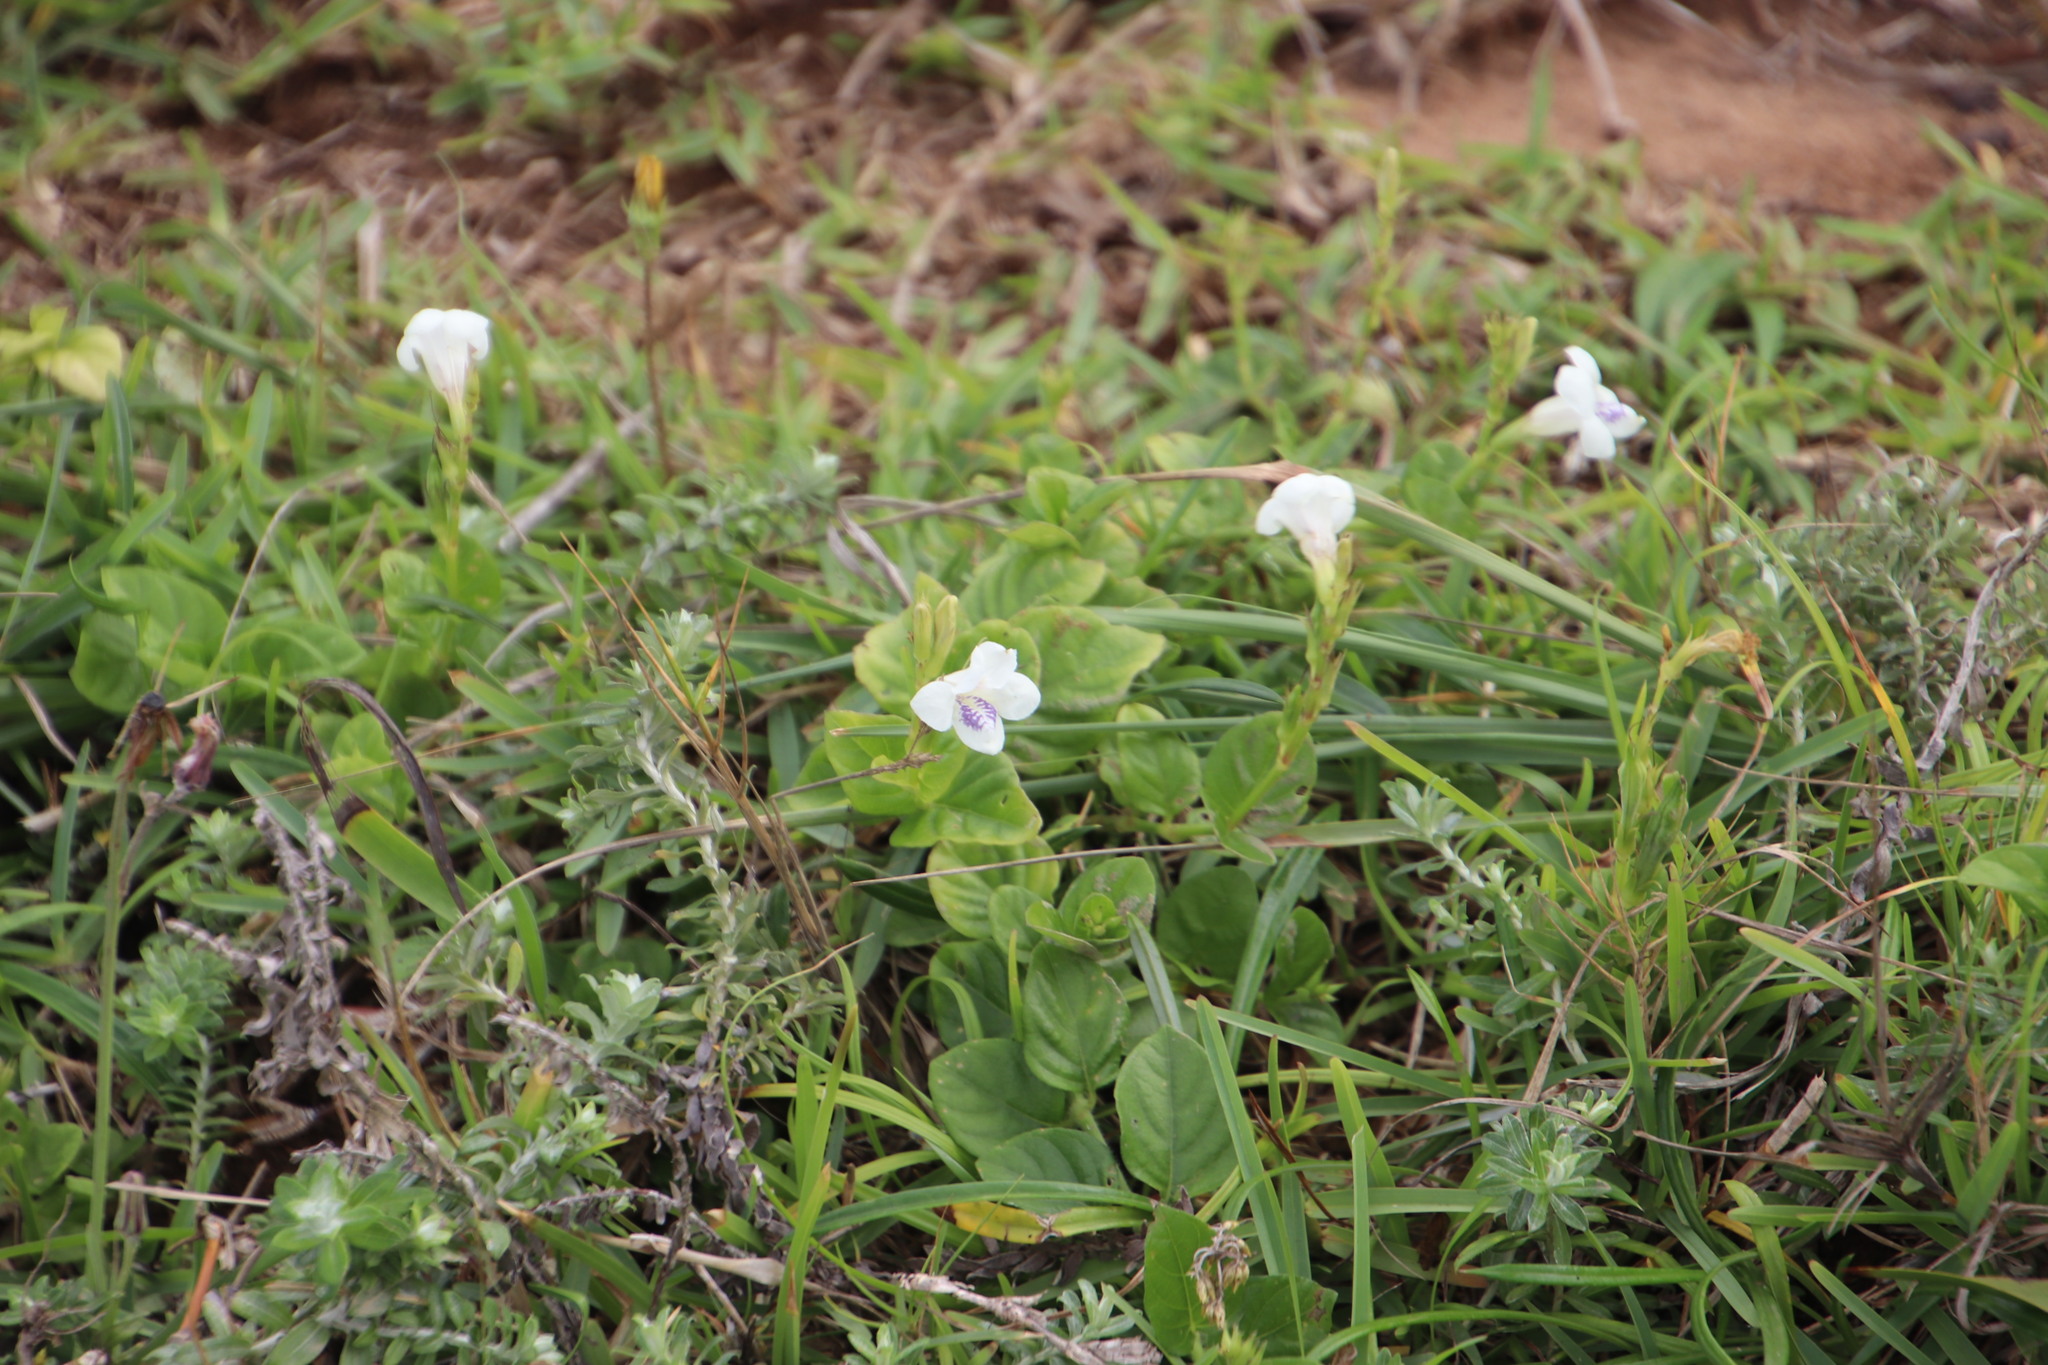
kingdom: Plantae
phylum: Tracheophyta
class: Magnoliopsida
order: Lamiales
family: Acanthaceae
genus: Asystasia
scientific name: Asystasia intrusa
